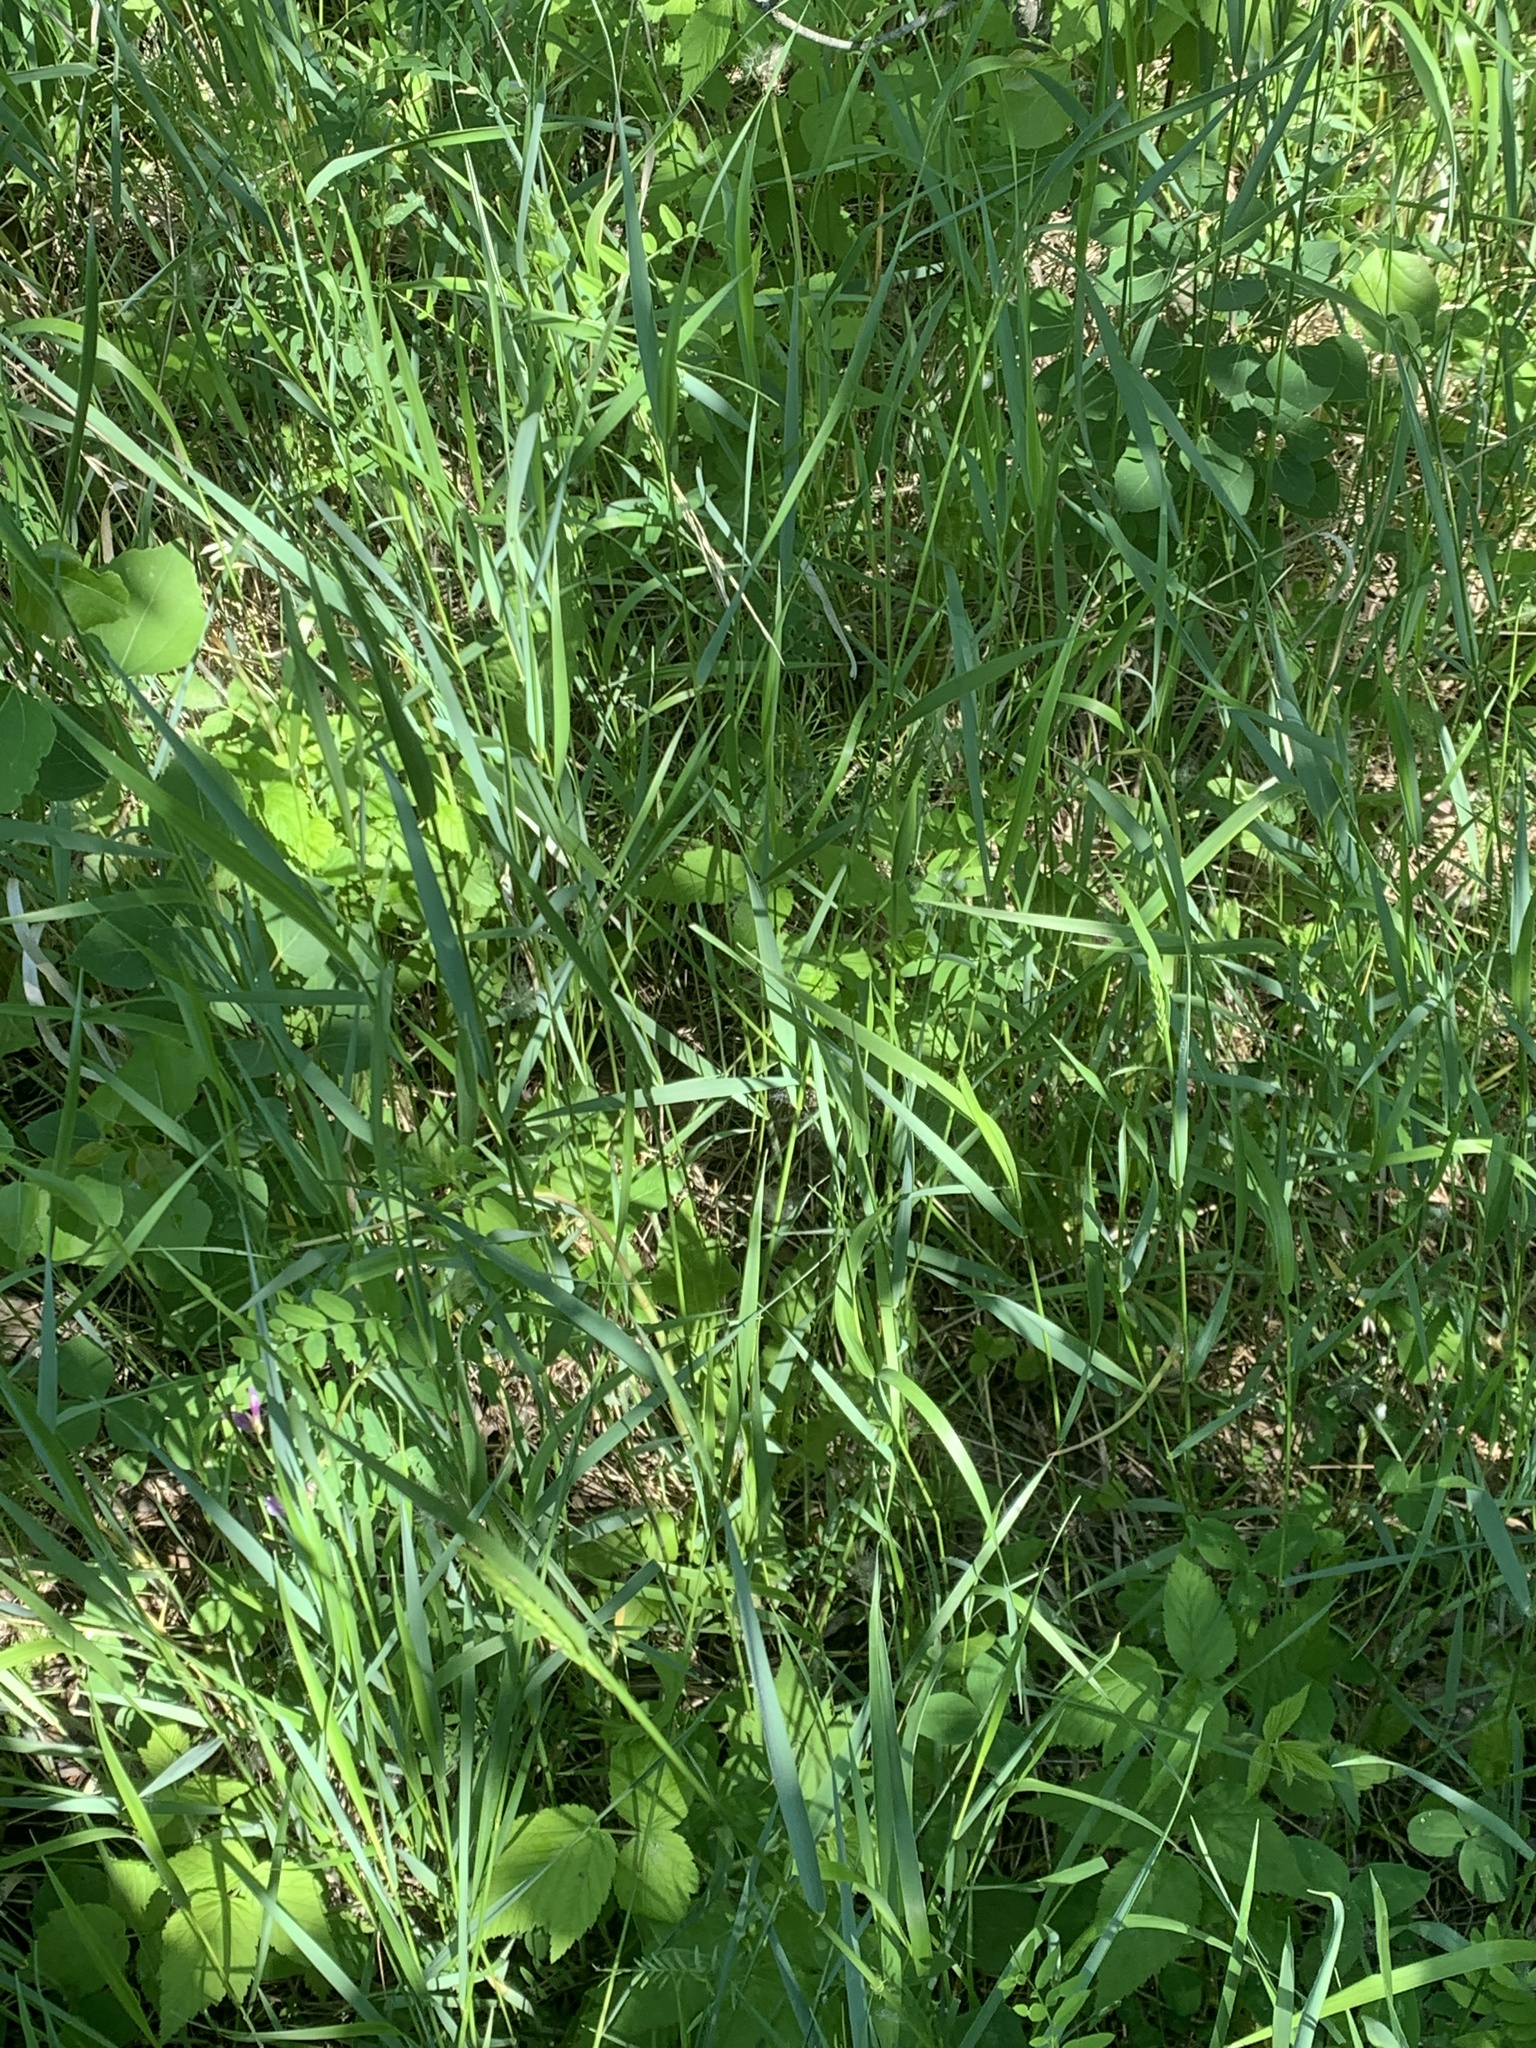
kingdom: Plantae
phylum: Tracheophyta
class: Liliopsida
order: Poales
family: Poaceae
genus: Elymus
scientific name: Elymus repens
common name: Quackgrass
